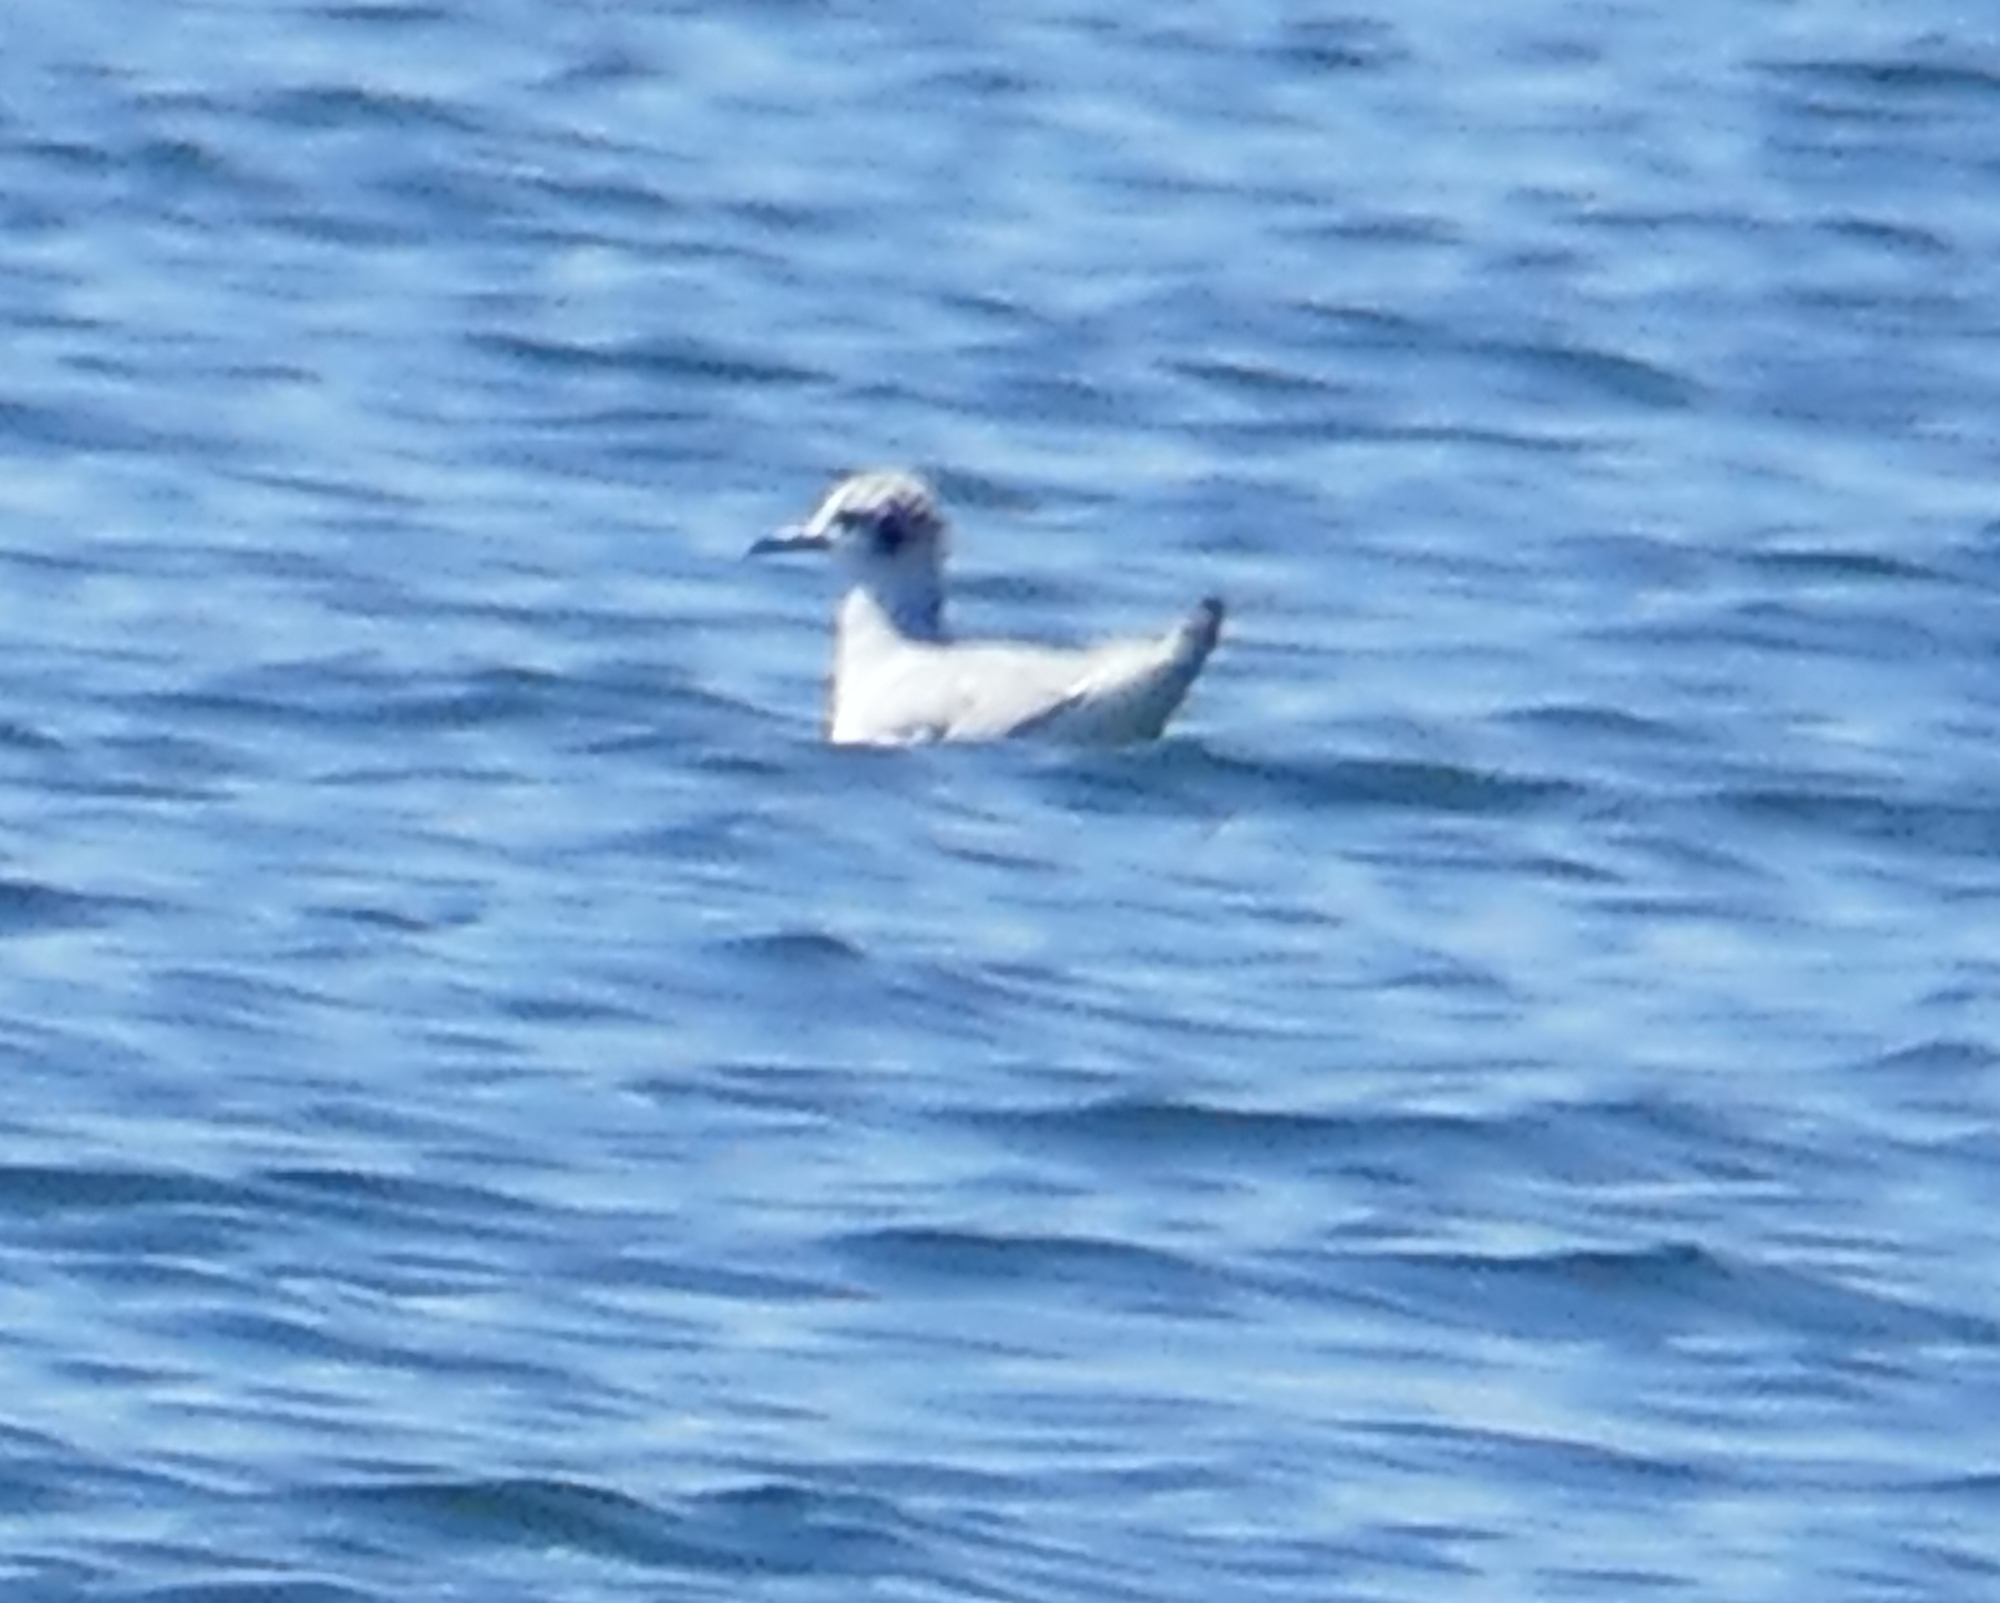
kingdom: Animalia
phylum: Chordata
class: Aves
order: Charadriiformes
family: Laridae
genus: Chroicocephalus
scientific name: Chroicocephalus philadelphia
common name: Bonaparte's gull
